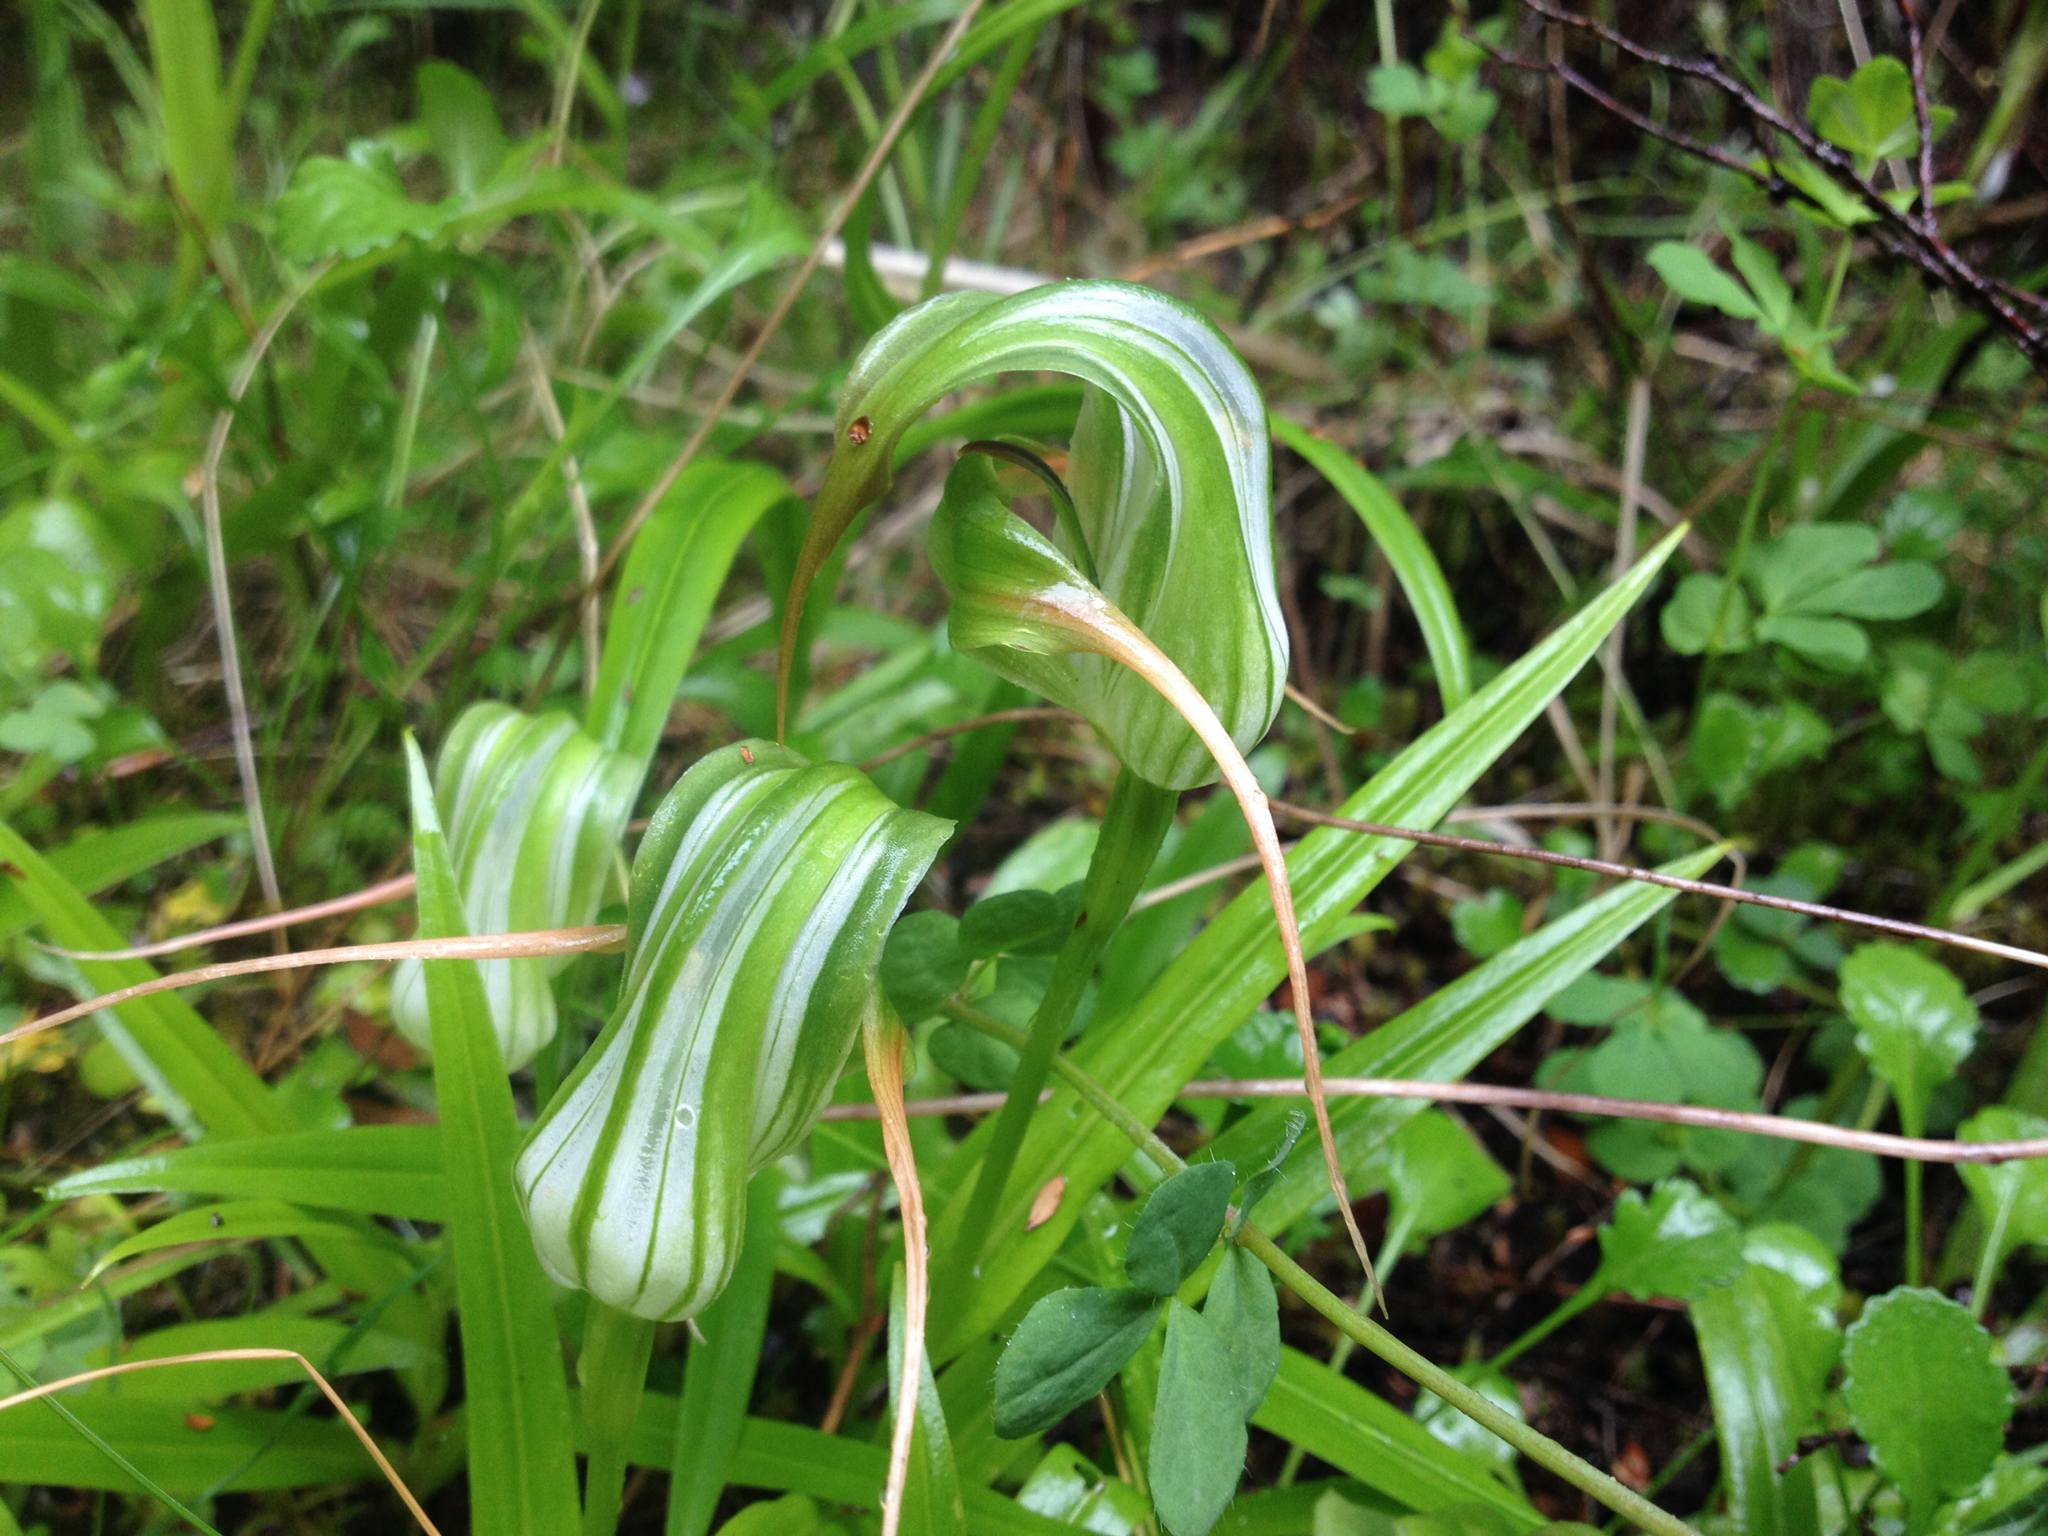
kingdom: Plantae
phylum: Tracheophyta
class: Liliopsida
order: Asparagales
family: Orchidaceae
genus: Pterostylis
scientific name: Pterostylis patens
